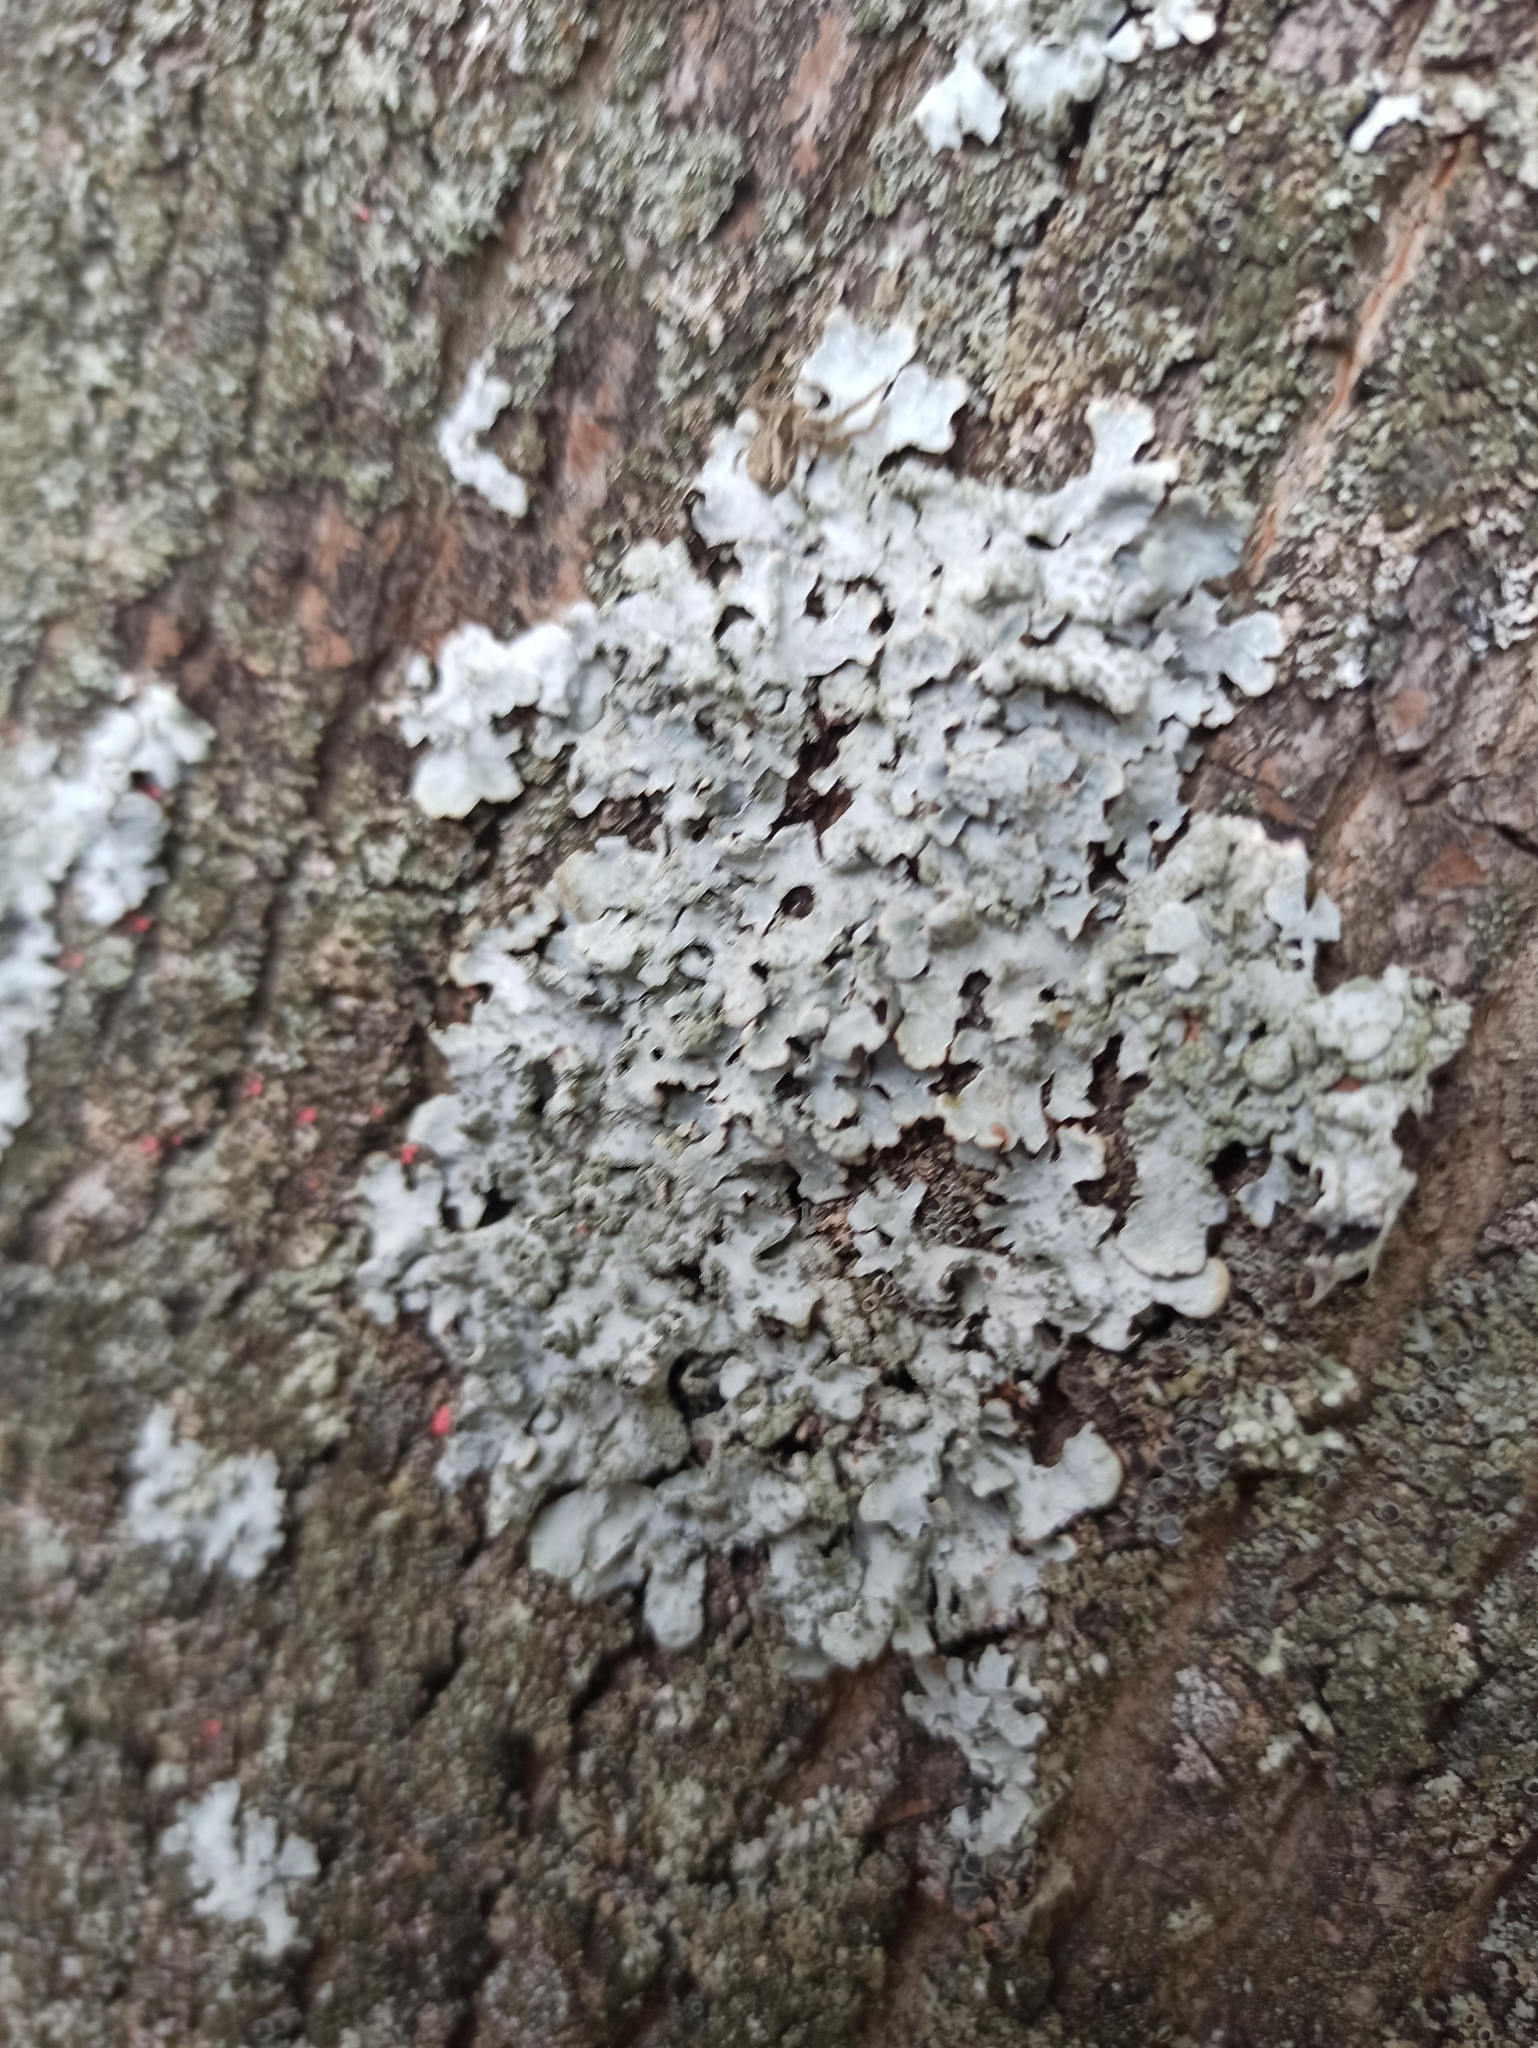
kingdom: Fungi
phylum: Ascomycota
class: Lecanoromycetes
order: Lecanorales
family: Parmeliaceae
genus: Parmelia
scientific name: Parmelia sulcata
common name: Netted shield lichen
